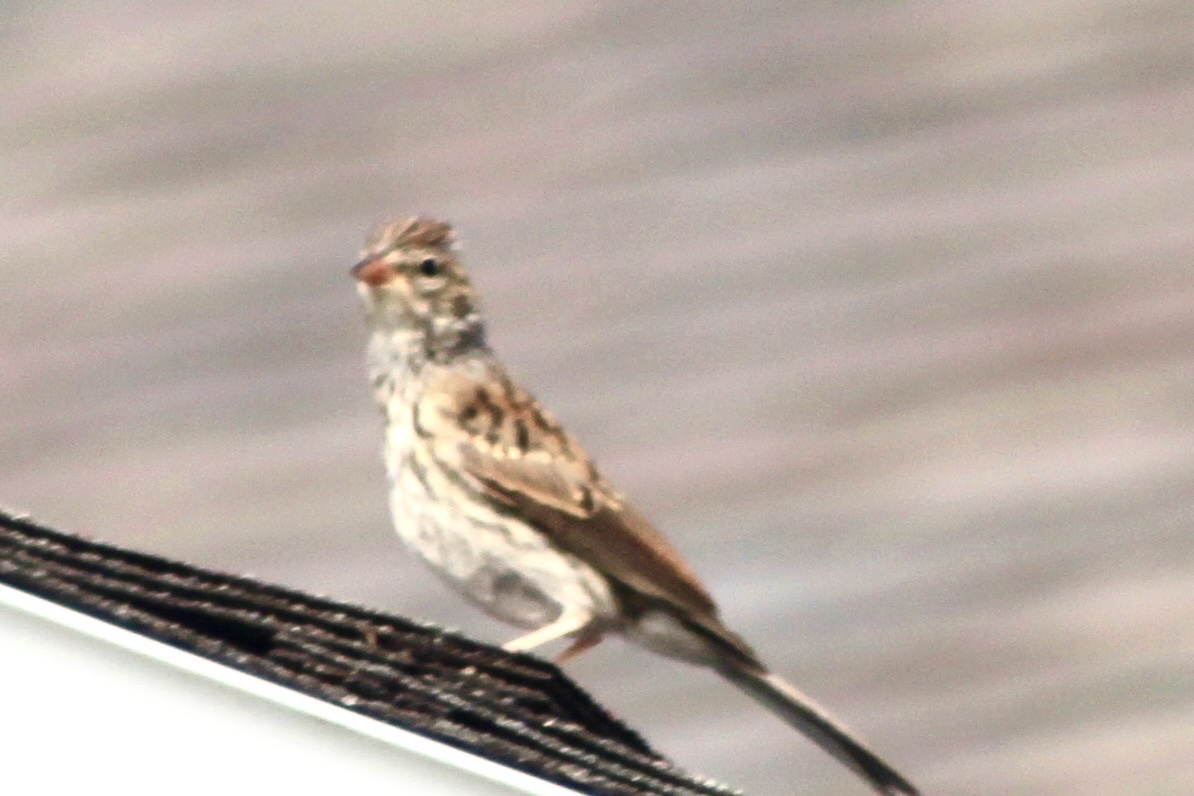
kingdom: Animalia
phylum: Chordata
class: Aves
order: Passeriformes
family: Passerellidae
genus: Spizella
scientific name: Spizella passerina
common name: Chipping sparrow
